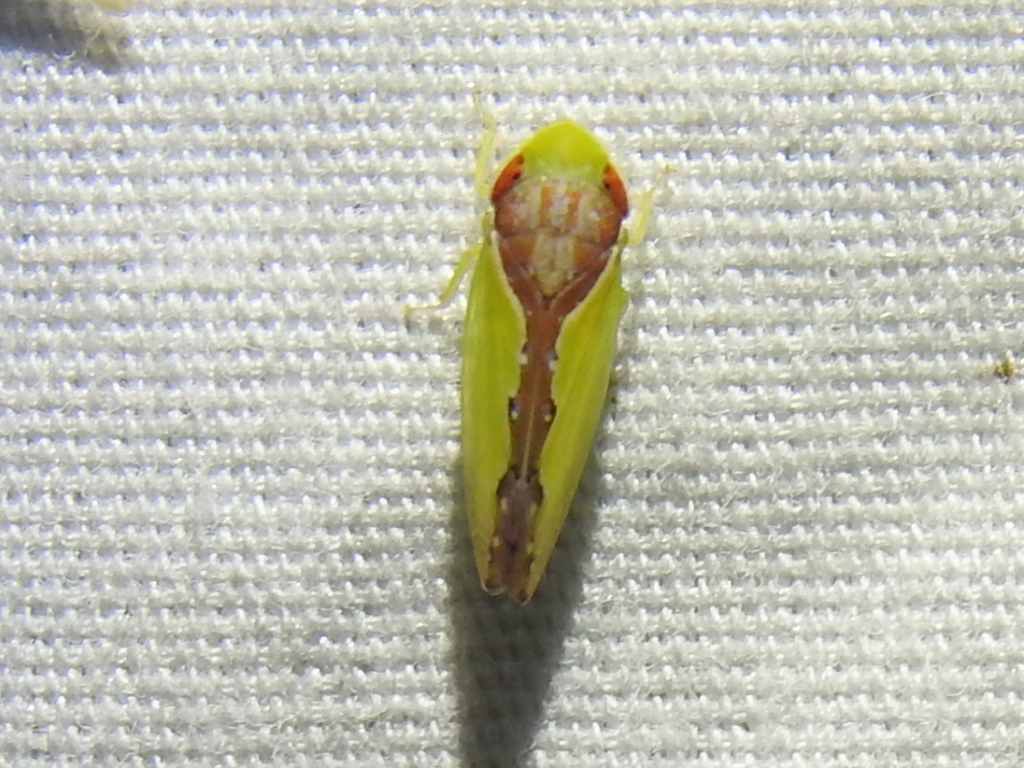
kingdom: Animalia
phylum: Arthropoda
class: Insecta
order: Hemiptera
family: Cicadellidae
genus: Omansobara ing
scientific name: Omansobara ing Omansobara palliolata
